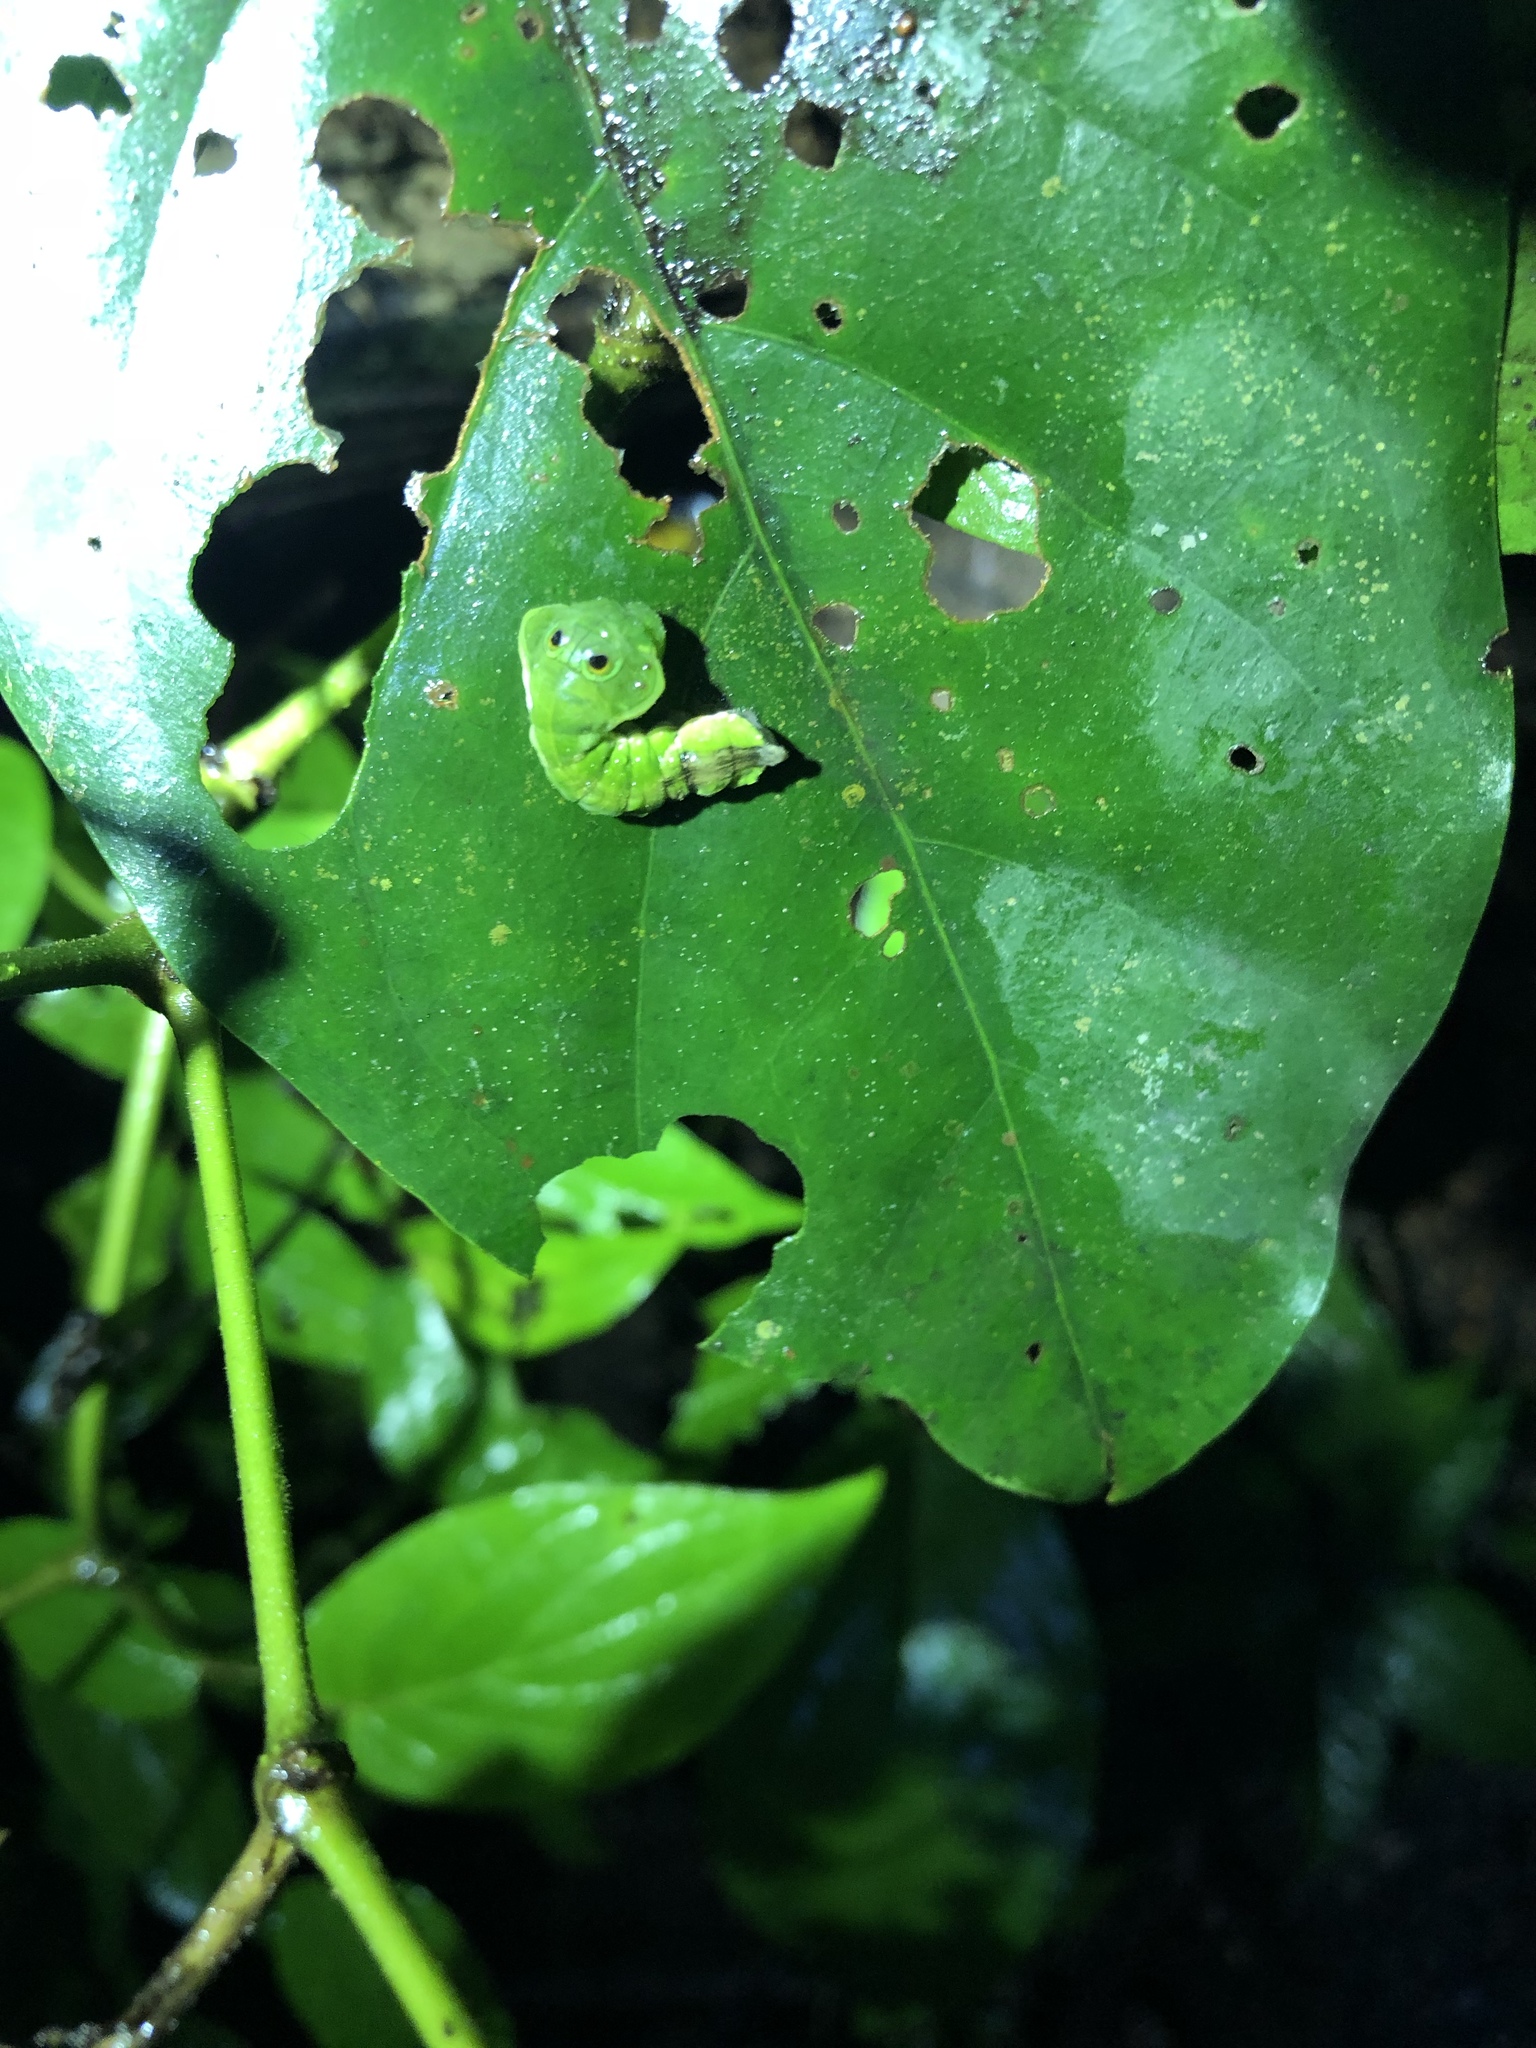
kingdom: Animalia
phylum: Arthropoda
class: Insecta
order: Lepidoptera
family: Saturniidae
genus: Oxytenis
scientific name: Oxytenis modoccidentalis
